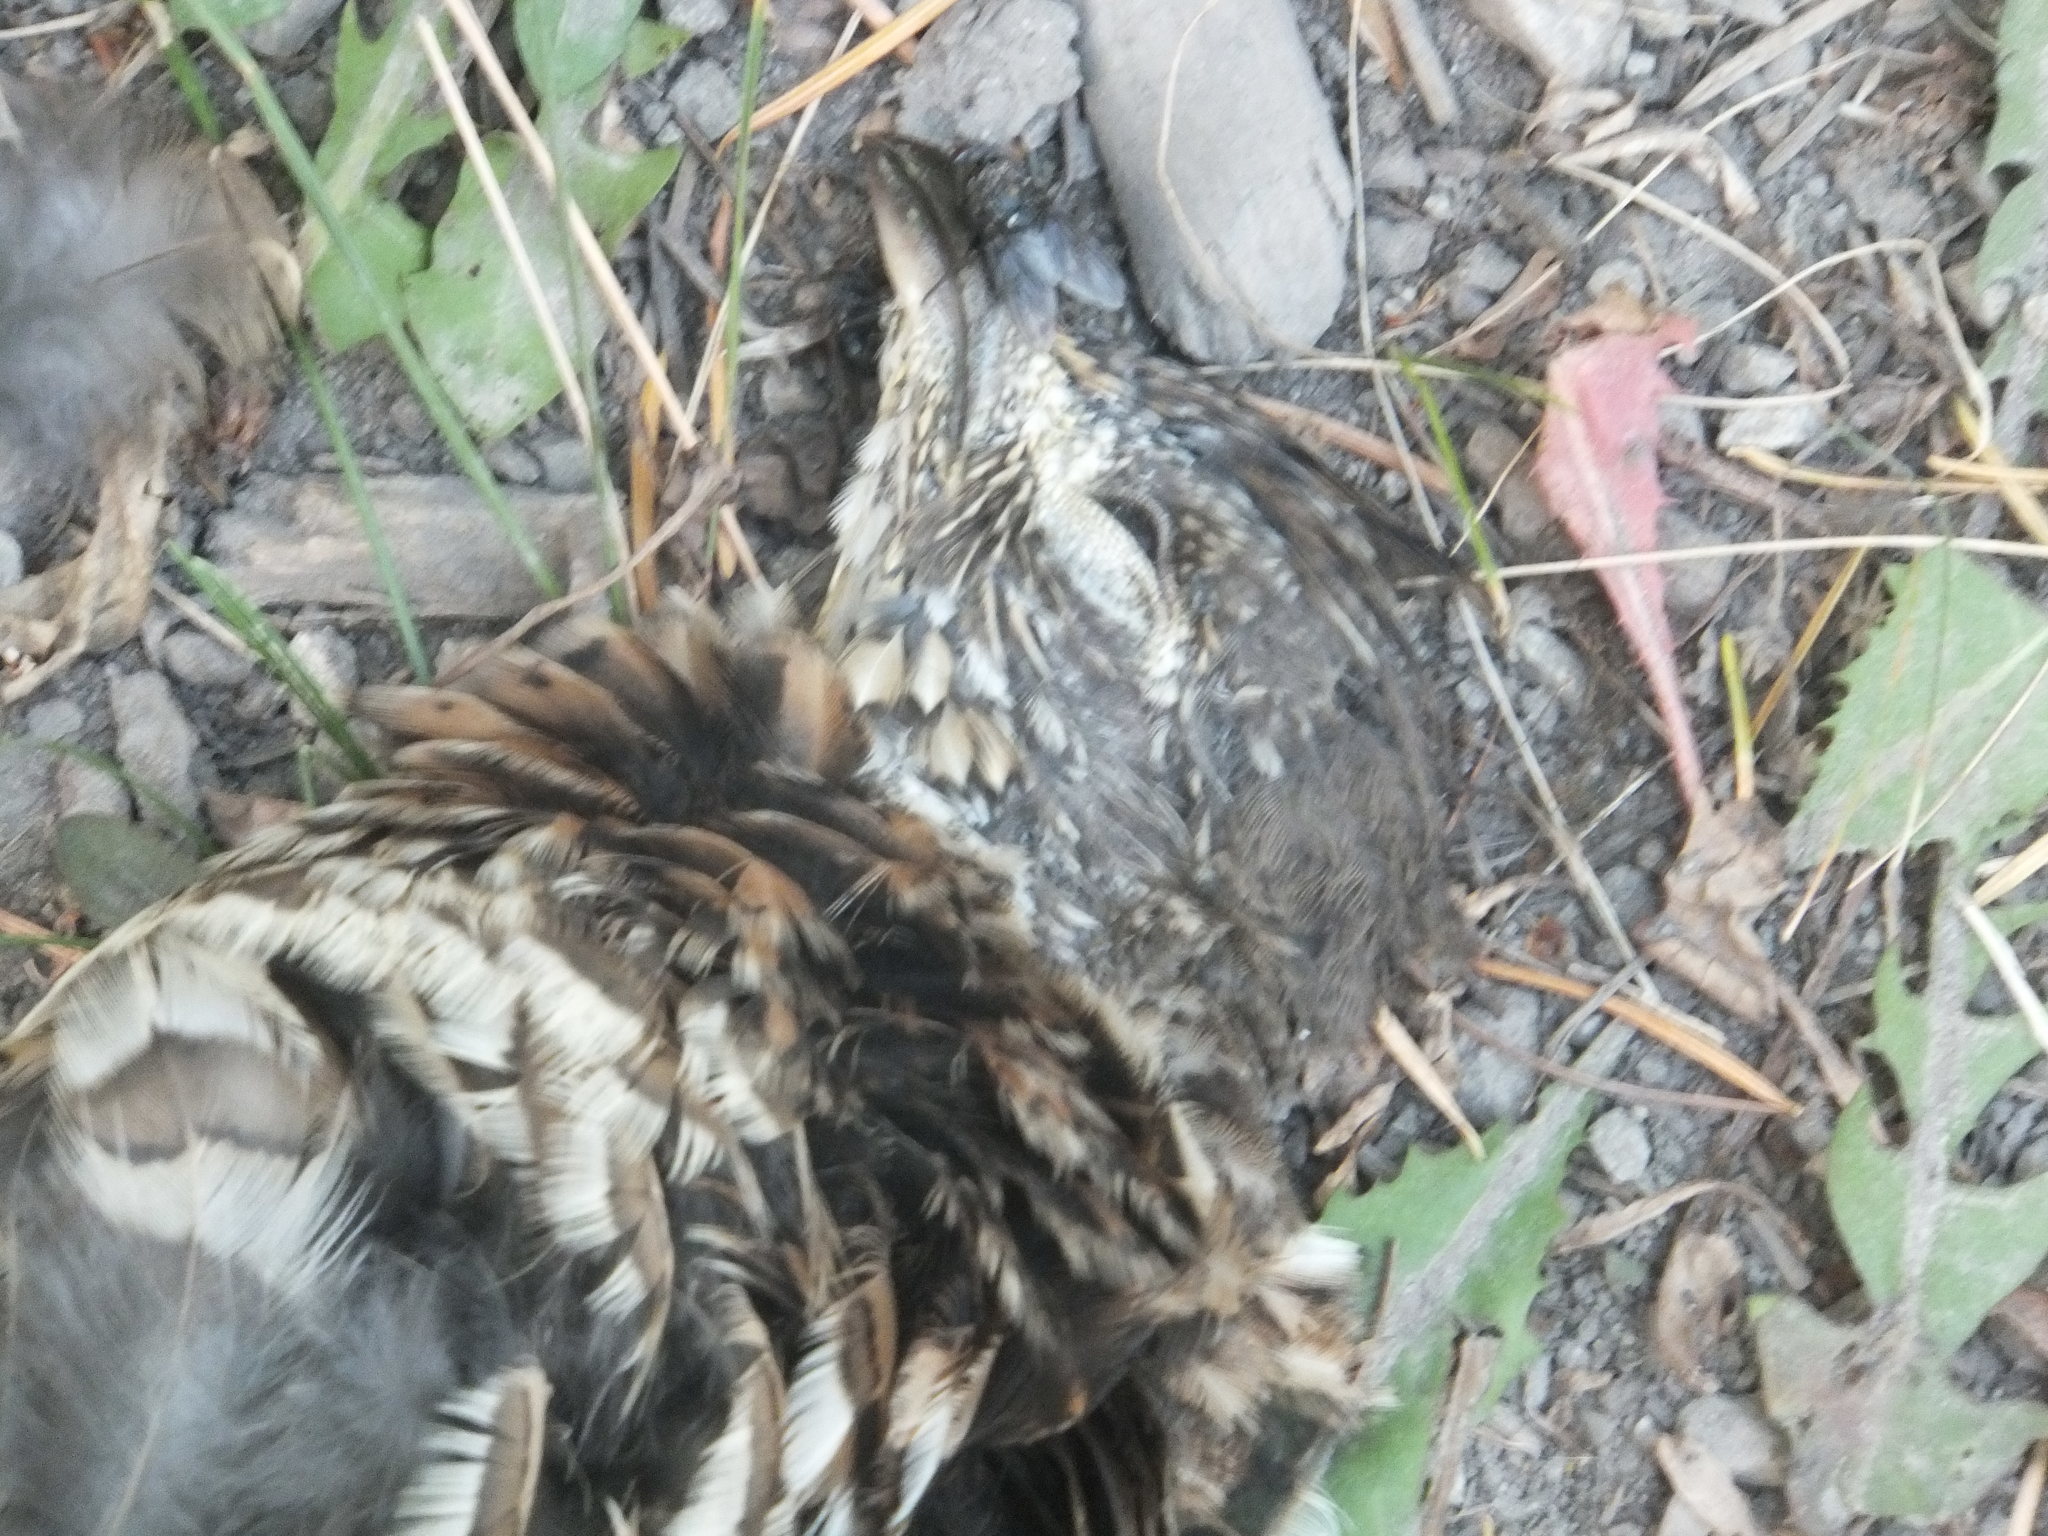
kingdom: Animalia
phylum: Chordata
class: Aves
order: Galliformes
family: Phasianidae
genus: Bonasa
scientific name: Bonasa umbellus
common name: Ruffed grouse
